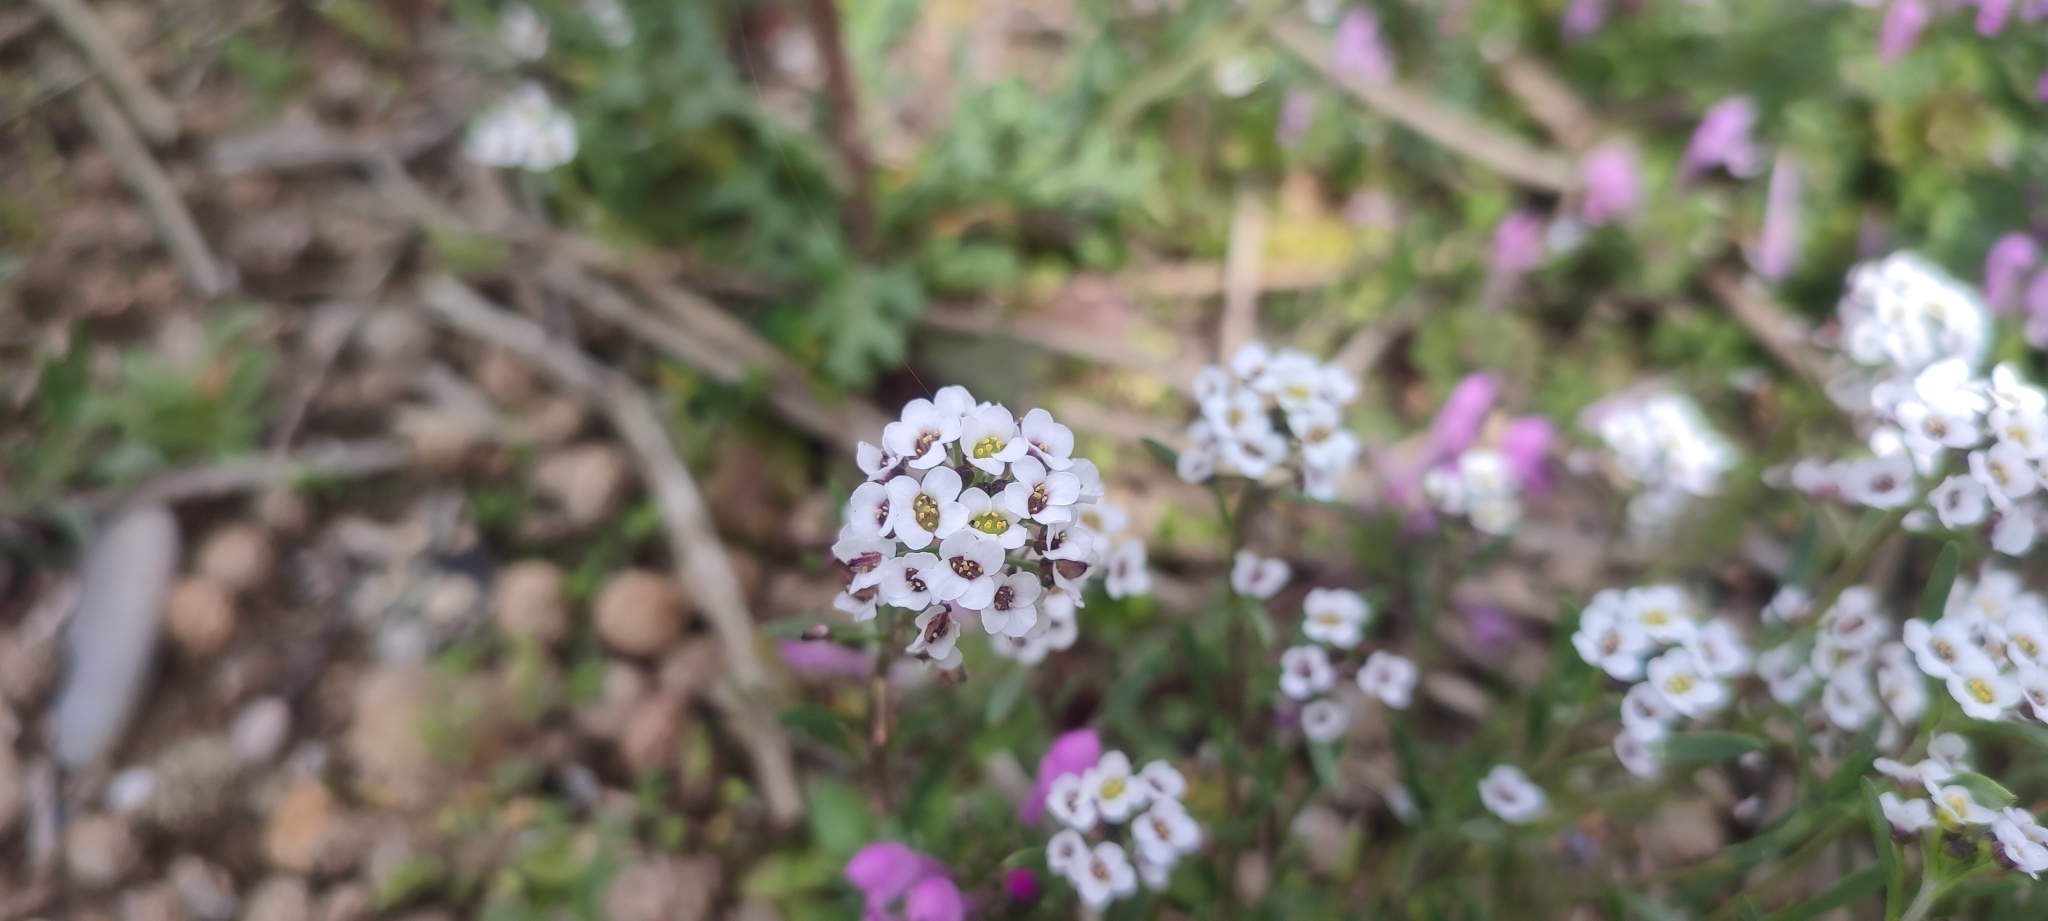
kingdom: Plantae
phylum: Tracheophyta
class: Magnoliopsida
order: Brassicales
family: Brassicaceae
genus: Lobularia
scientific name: Lobularia maritima
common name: Sweet alison
